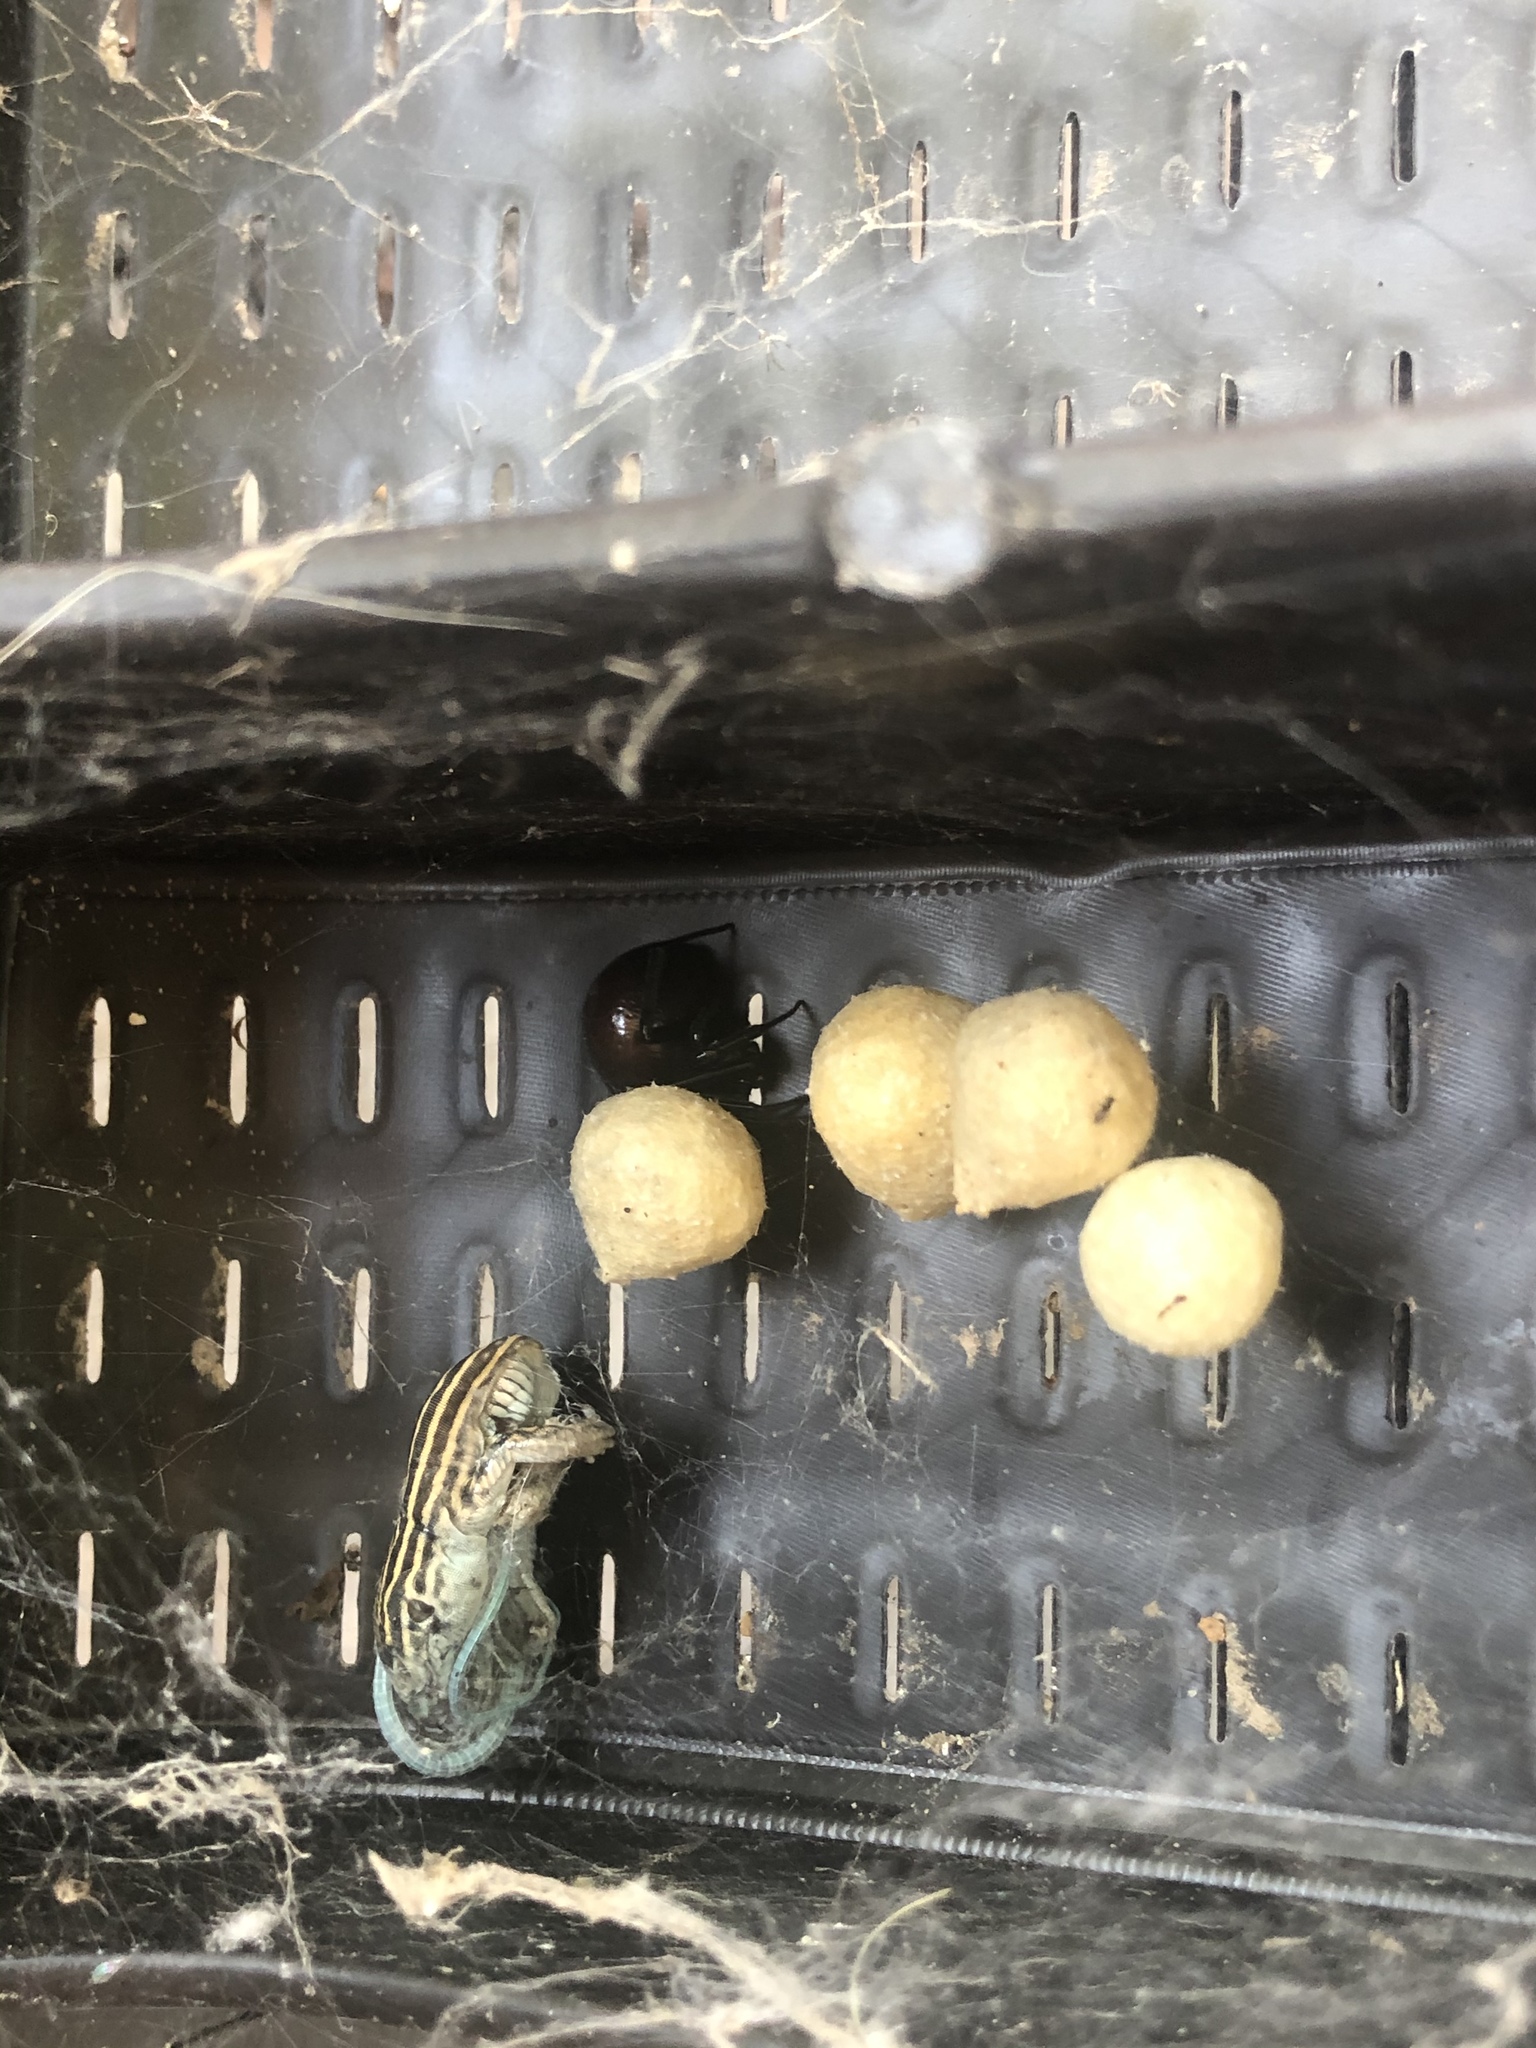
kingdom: Animalia
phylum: Chordata
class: Squamata
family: Teiidae
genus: Aspidoscelis
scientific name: Aspidoscelis neomexicanus
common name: New mexico whiptail
